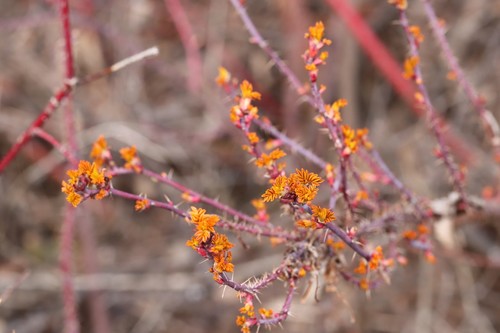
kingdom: Fungi
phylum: Basidiomycota
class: Pucciniomycetes
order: Pucciniales
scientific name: Pucciniales
